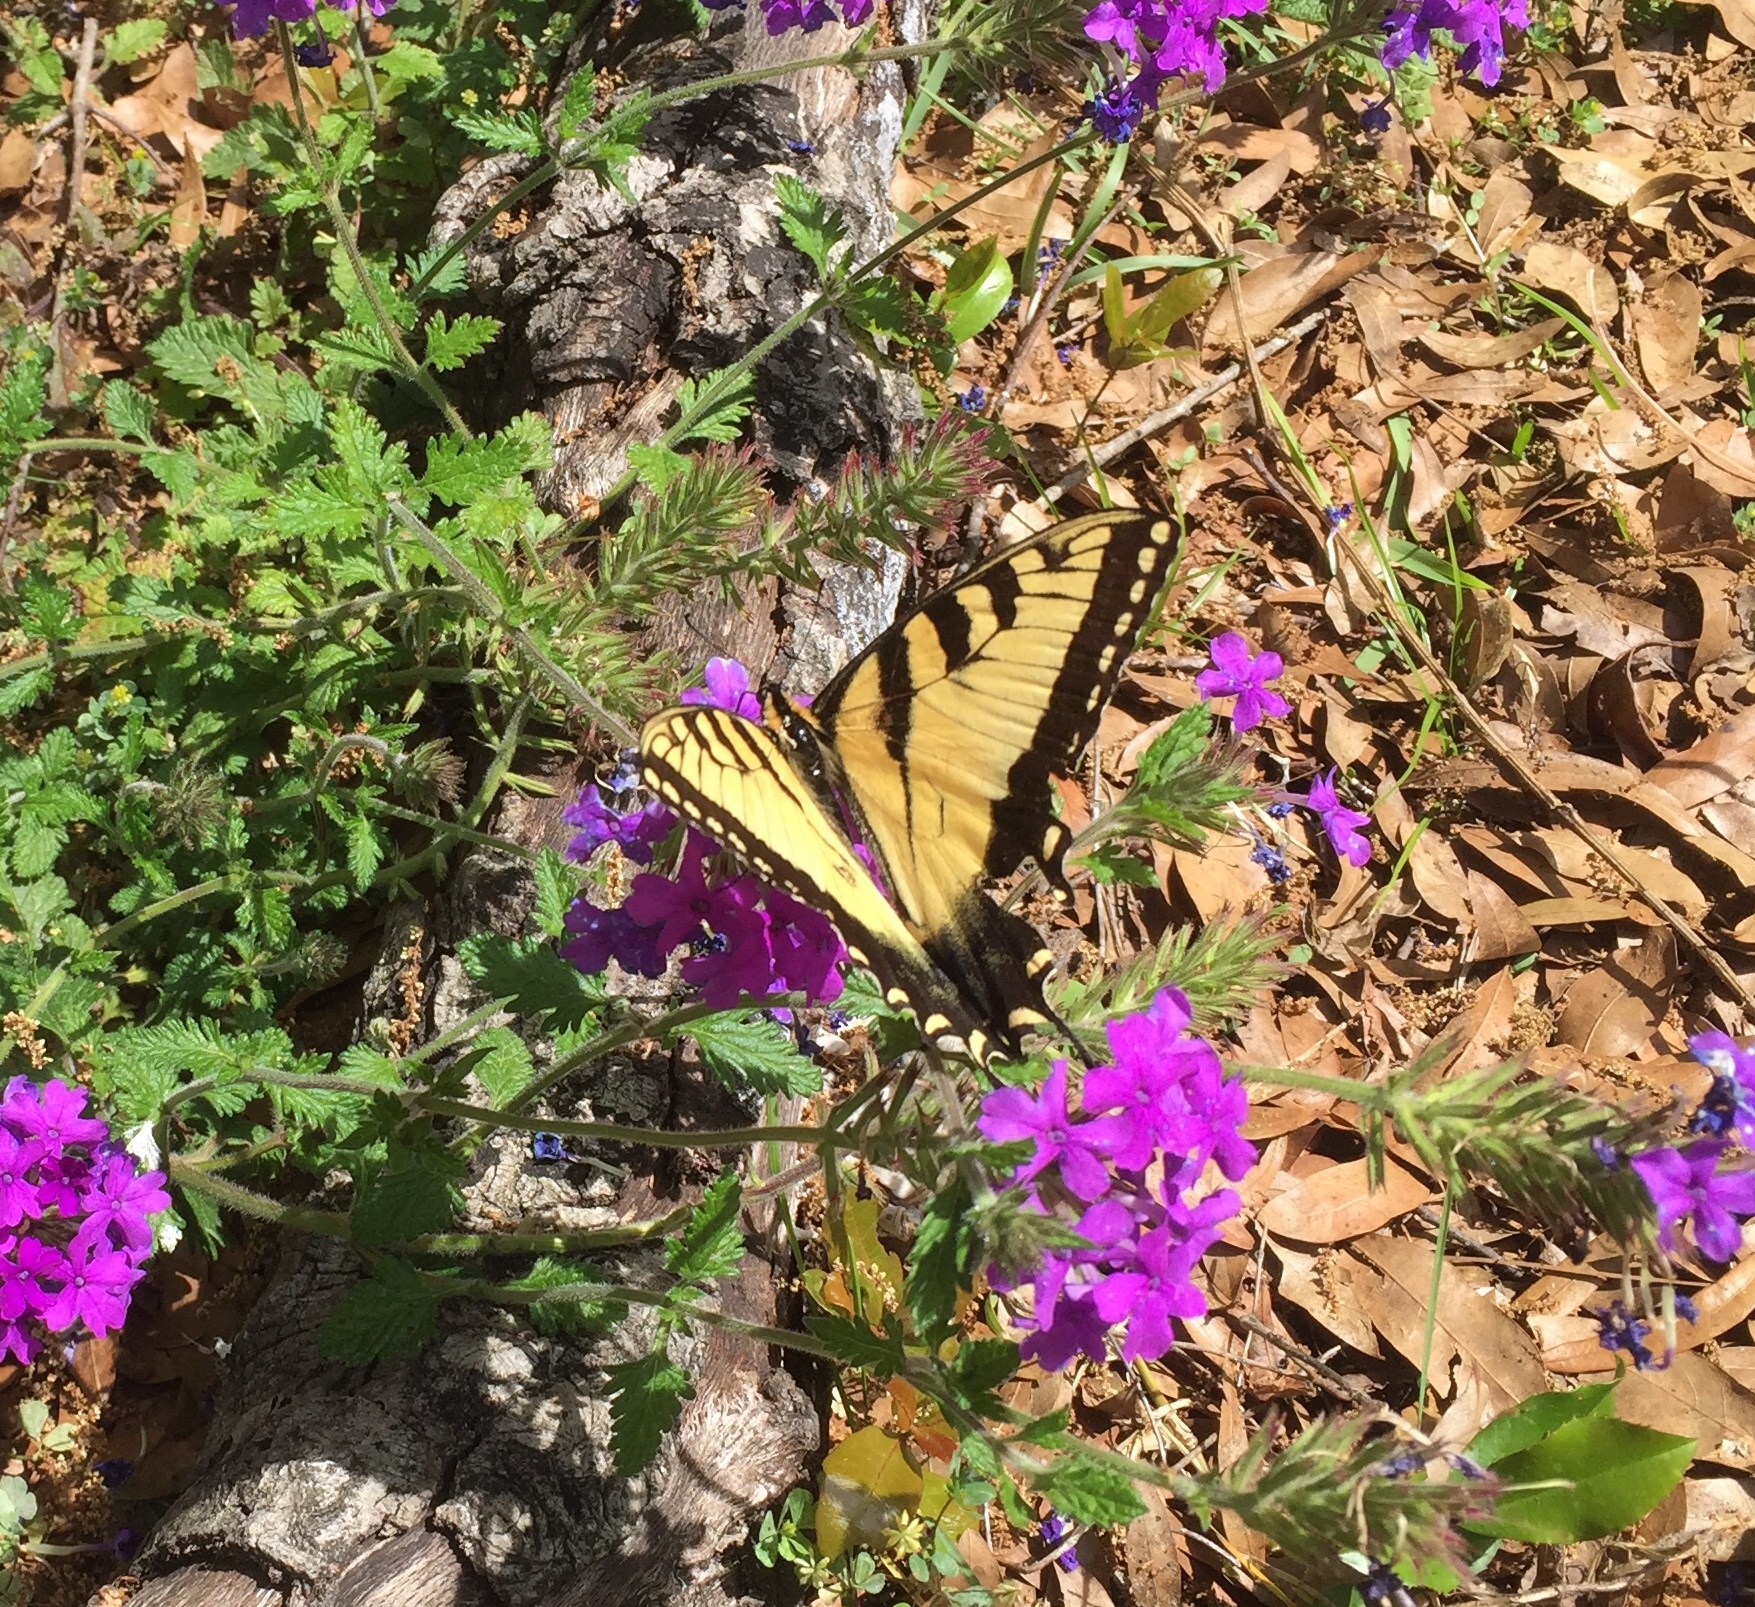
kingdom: Animalia
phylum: Arthropoda
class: Insecta
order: Lepidoptera
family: Papilionidae
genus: Papilio
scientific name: Papilio glaucus
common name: Tiger swallowtail
